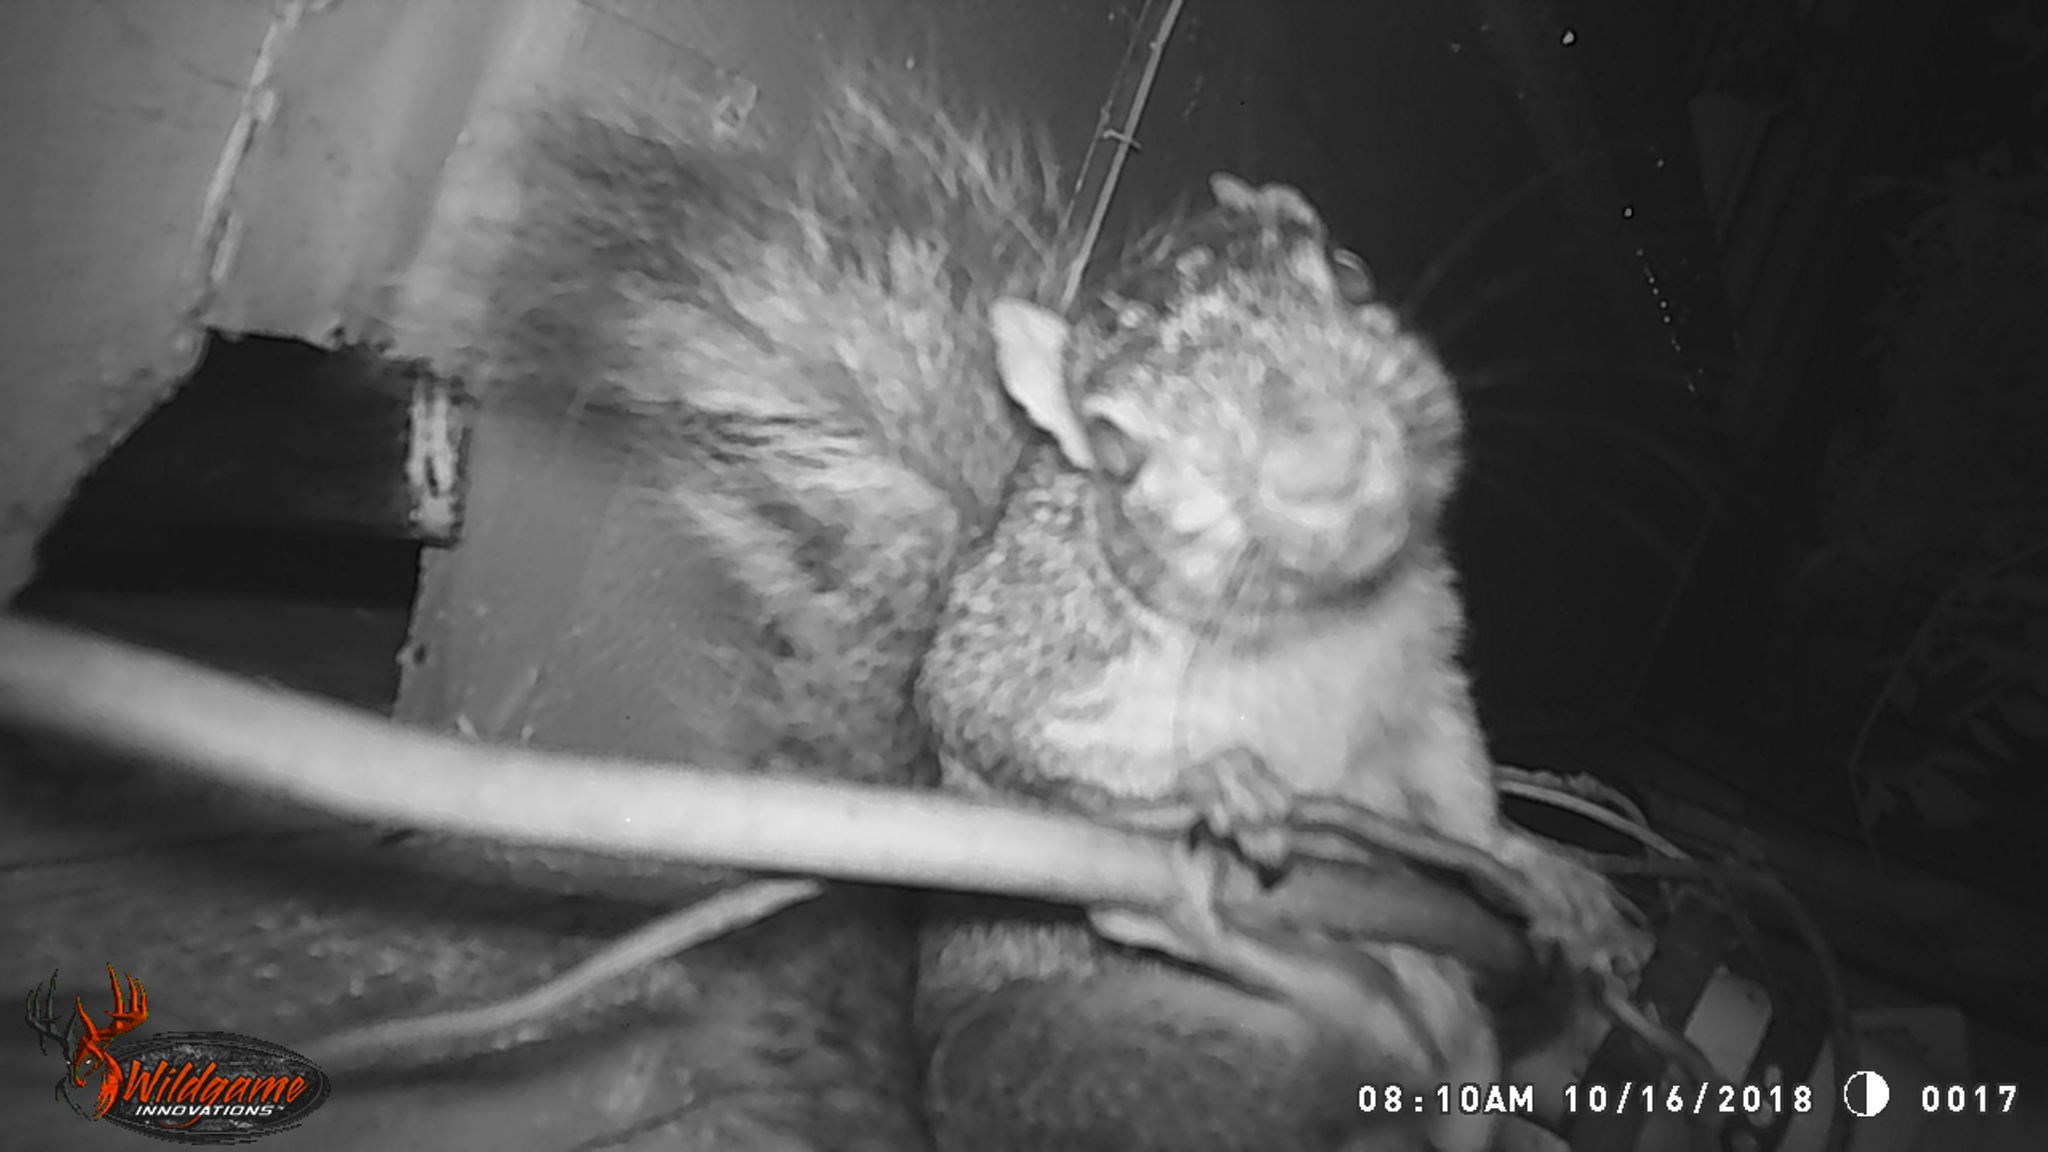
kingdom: Animalia
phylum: Chordata
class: Mammalia
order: Rodentia
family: Sciuridae
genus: Sciurus
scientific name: Sciurus niger
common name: Fox squirrel
